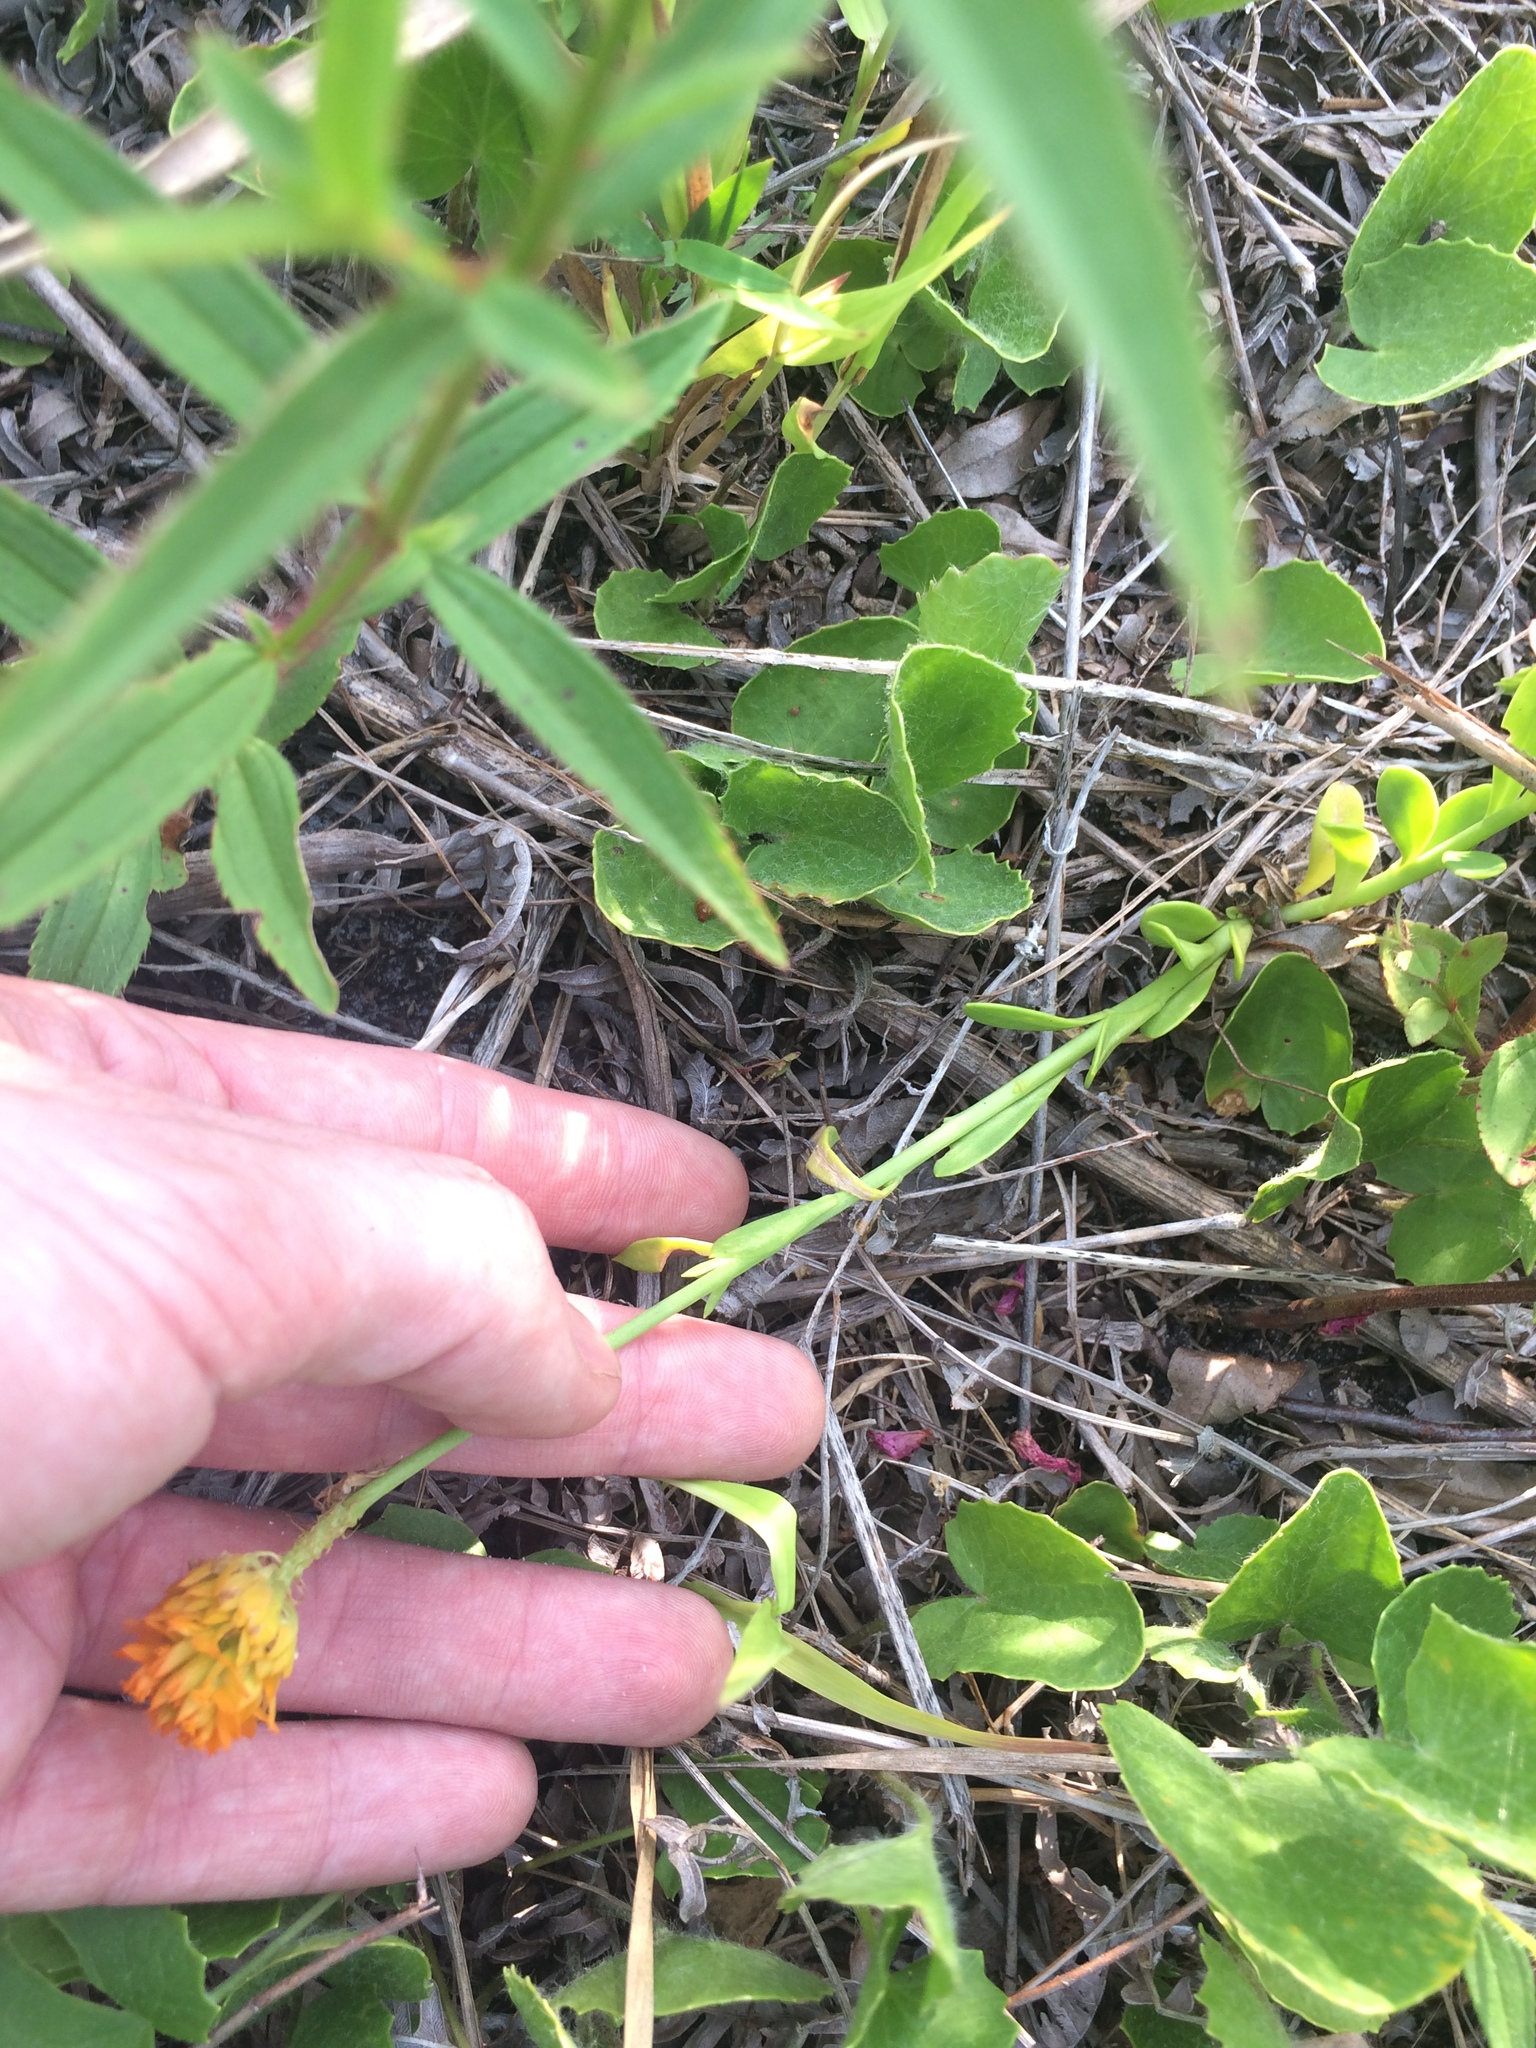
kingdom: Plantae
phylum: Tracheophyta
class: Magnoliopsida
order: Fabales
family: Polygalaceae
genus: Polygala
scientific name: Polygala lutea
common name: Orange milkwort
